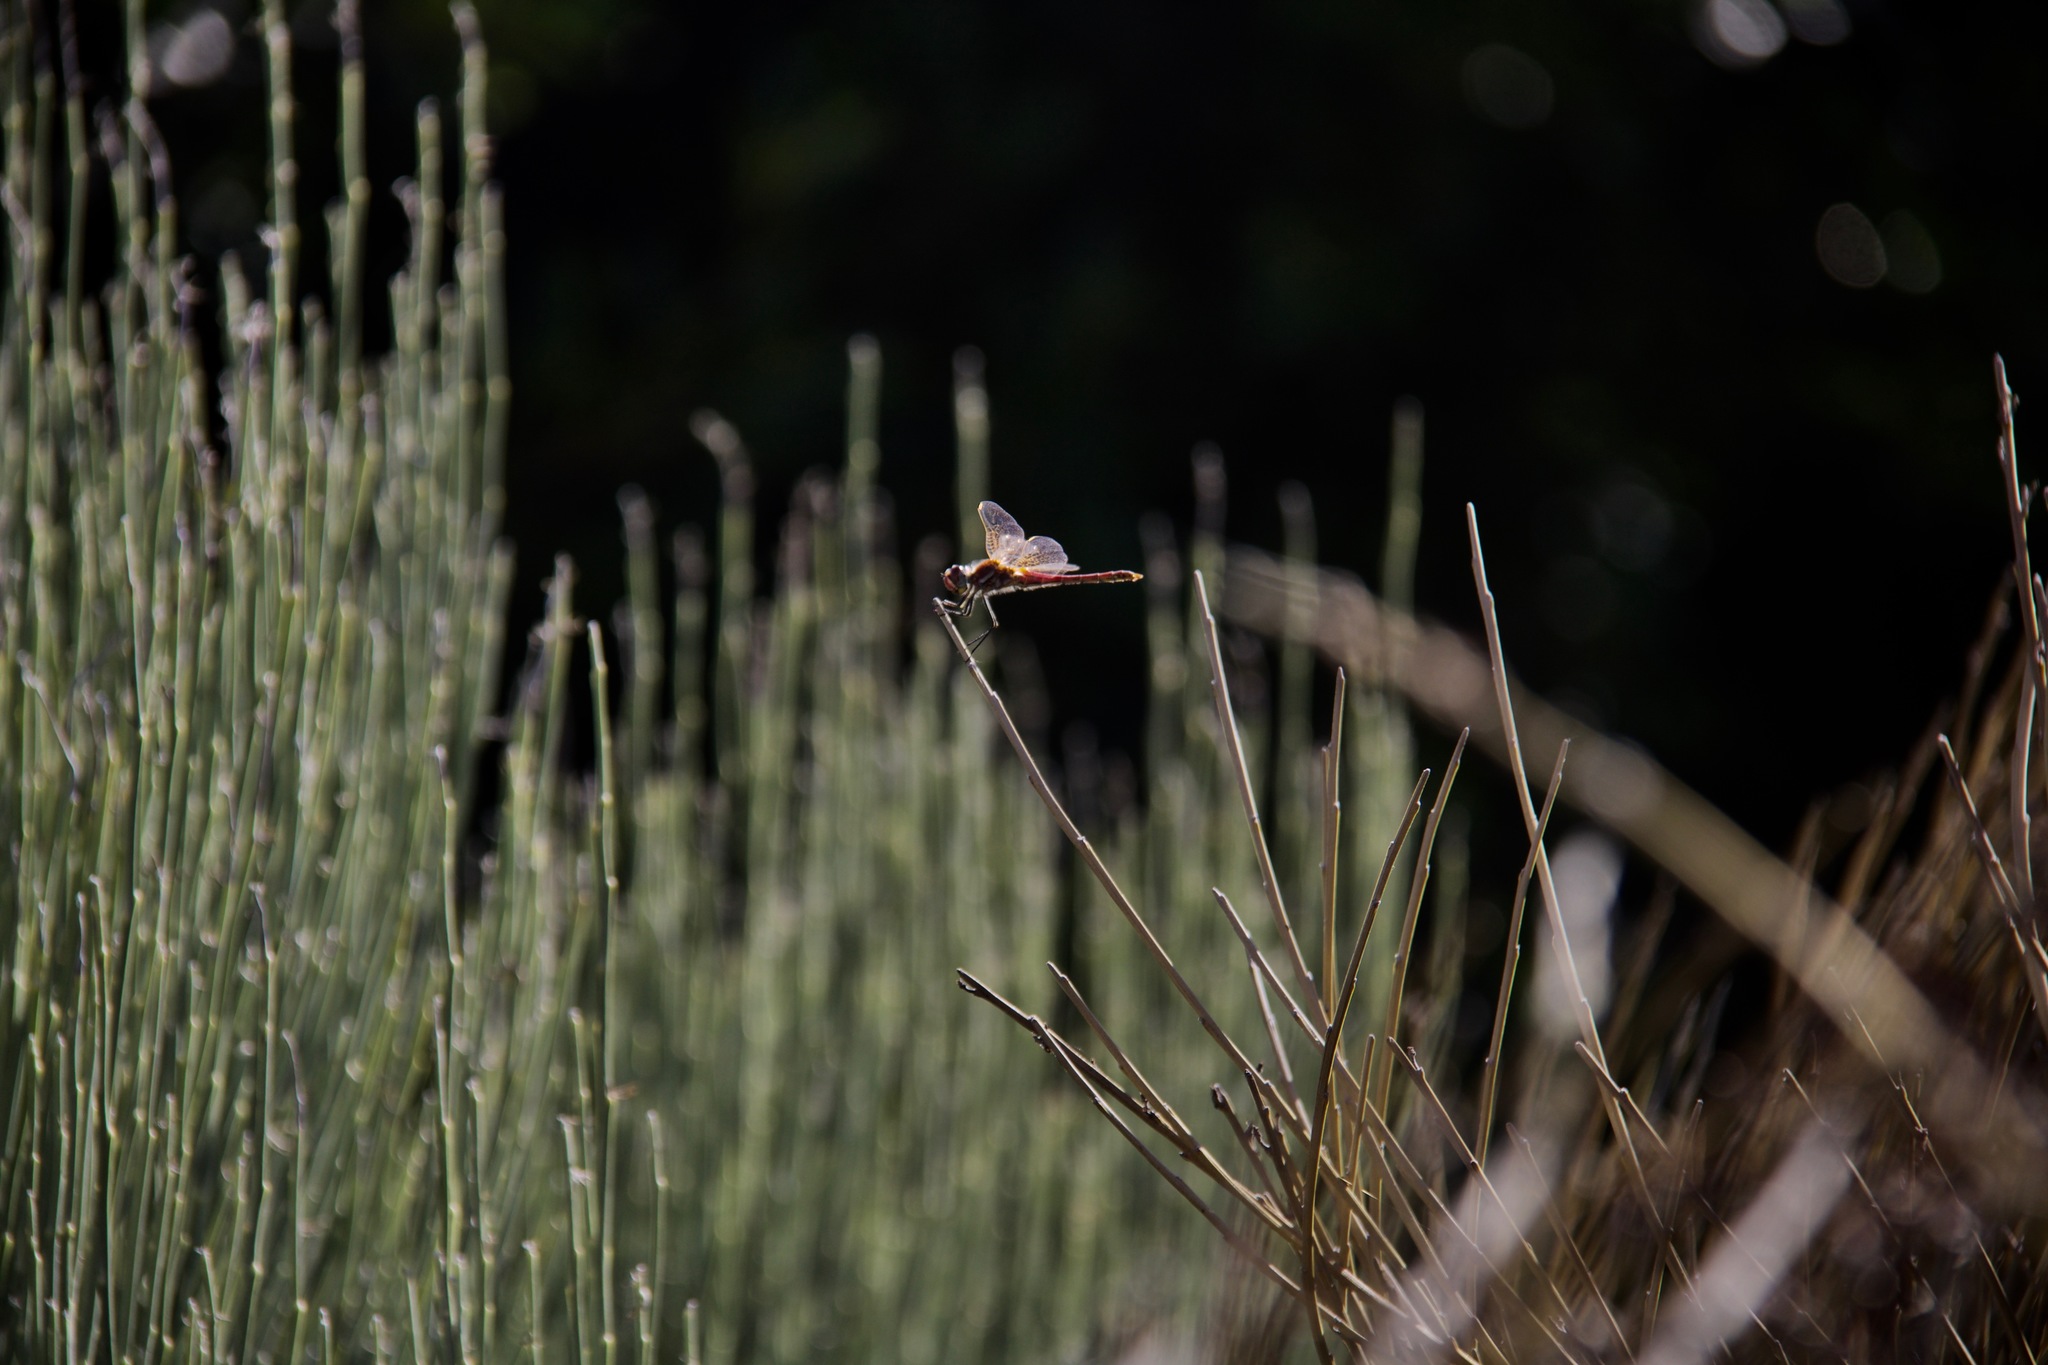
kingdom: Animalia
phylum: Arthropoda
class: Insecta
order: Odonata
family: Libellulidae
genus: Sympetrum
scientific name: Sympetrum fonscolombii
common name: Red-veined darter
